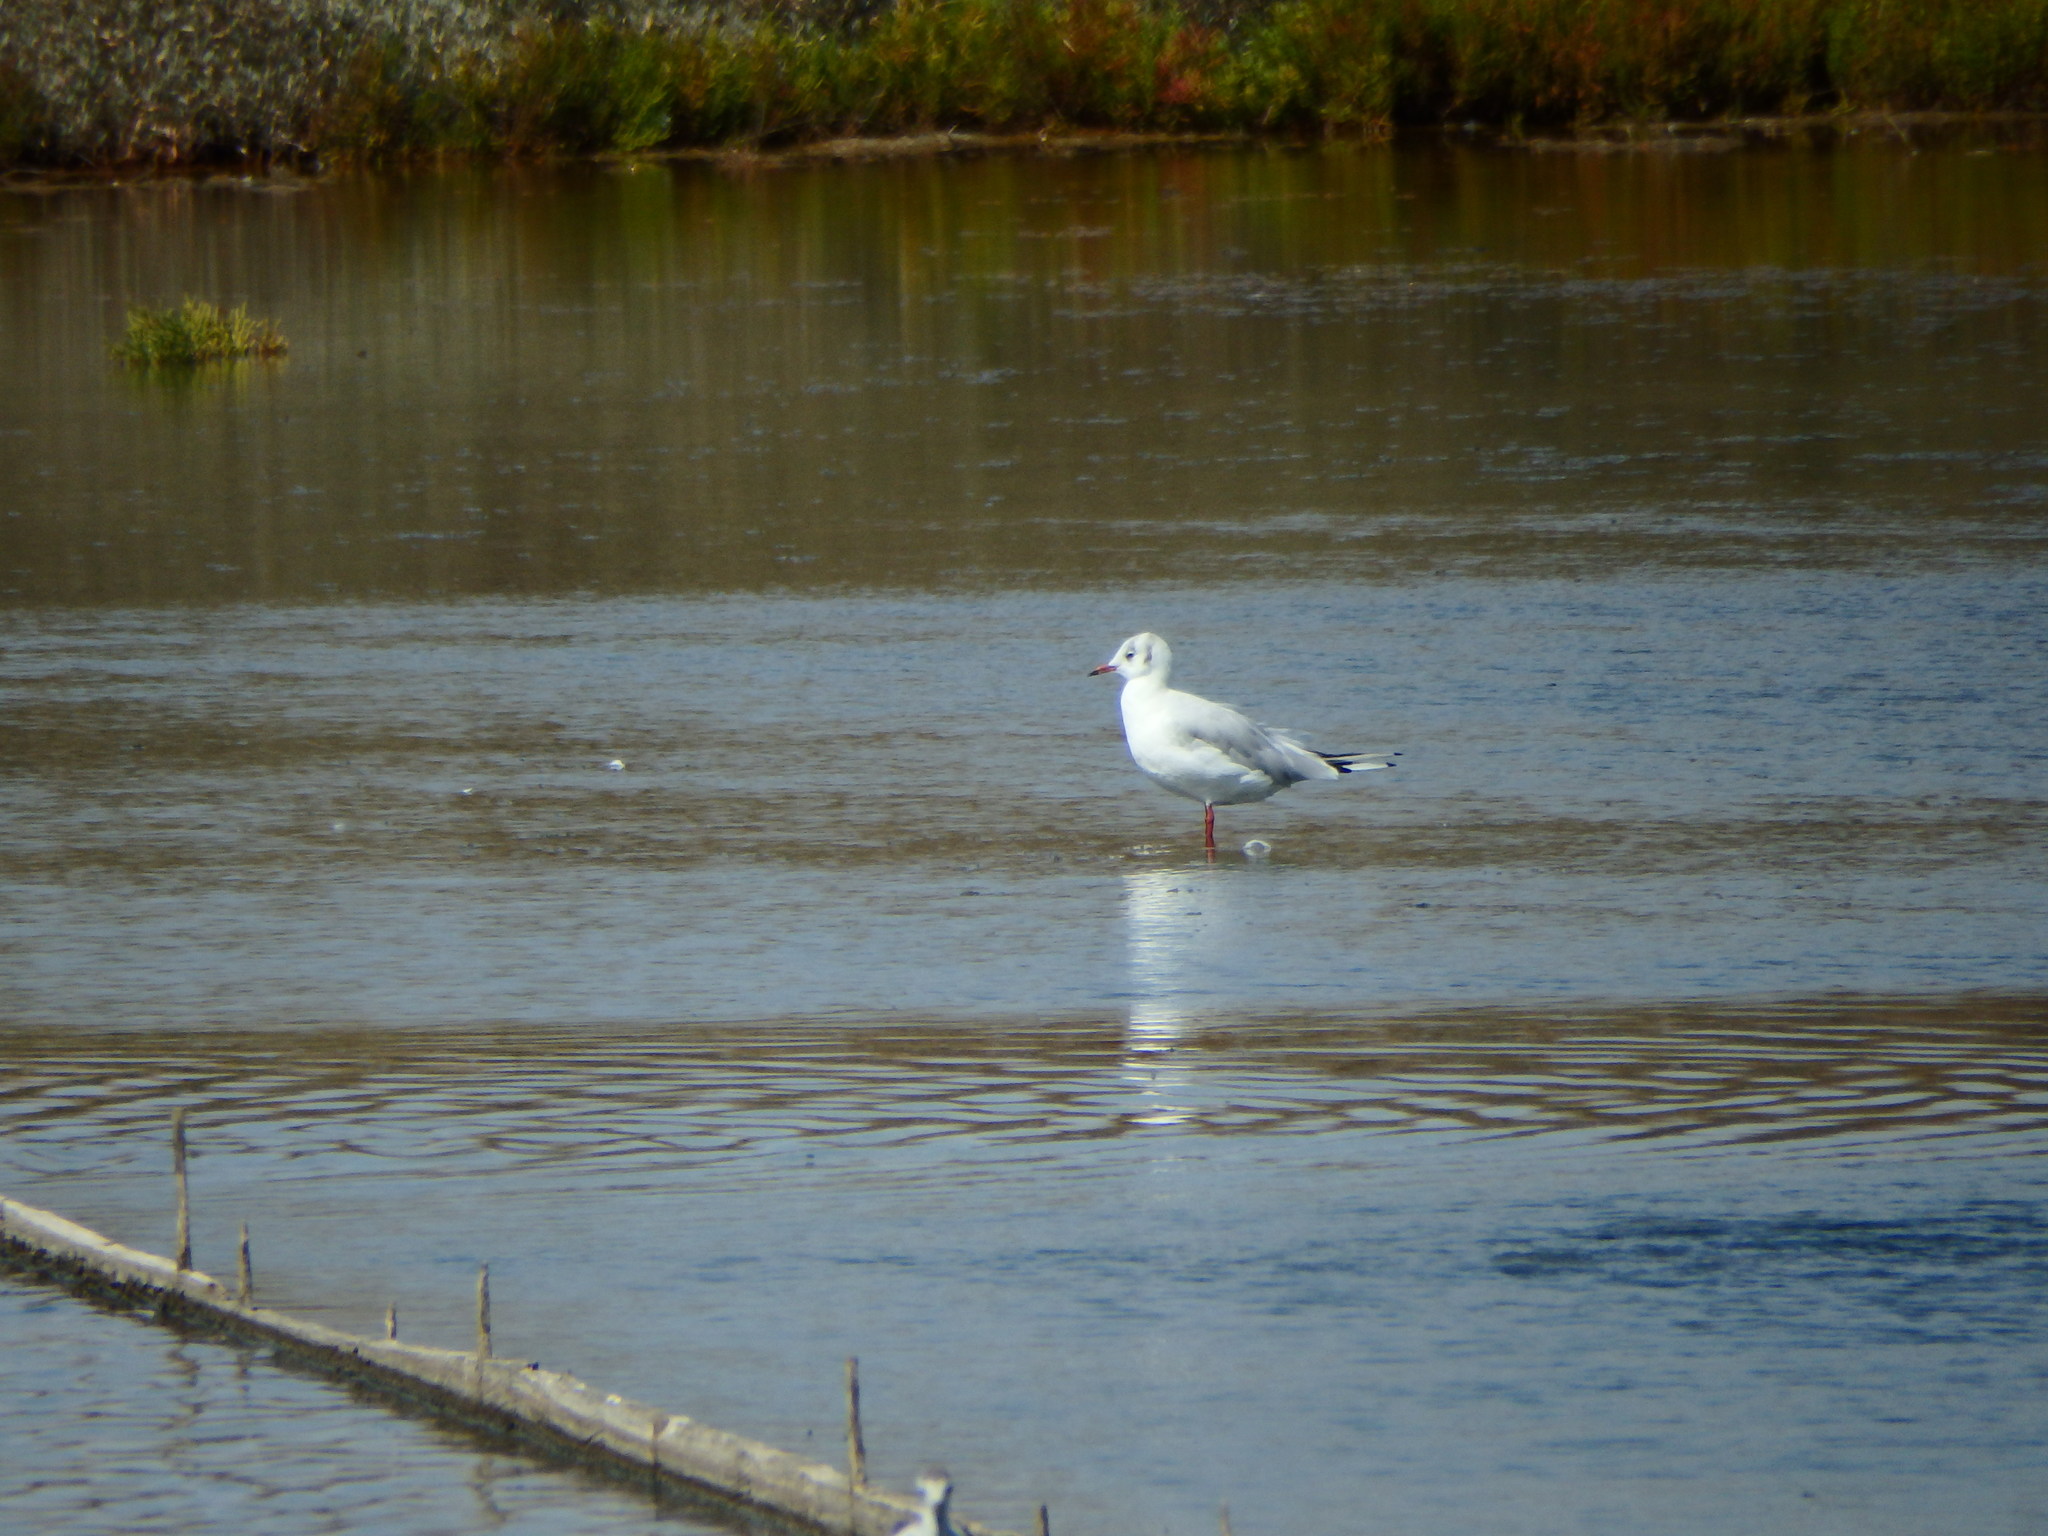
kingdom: Animalia
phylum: Chordata
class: Aves
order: Charadriiformes
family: Laridae
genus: Chroicocephalus
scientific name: Chroicocephalus ridibundus
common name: Black-headed gull
